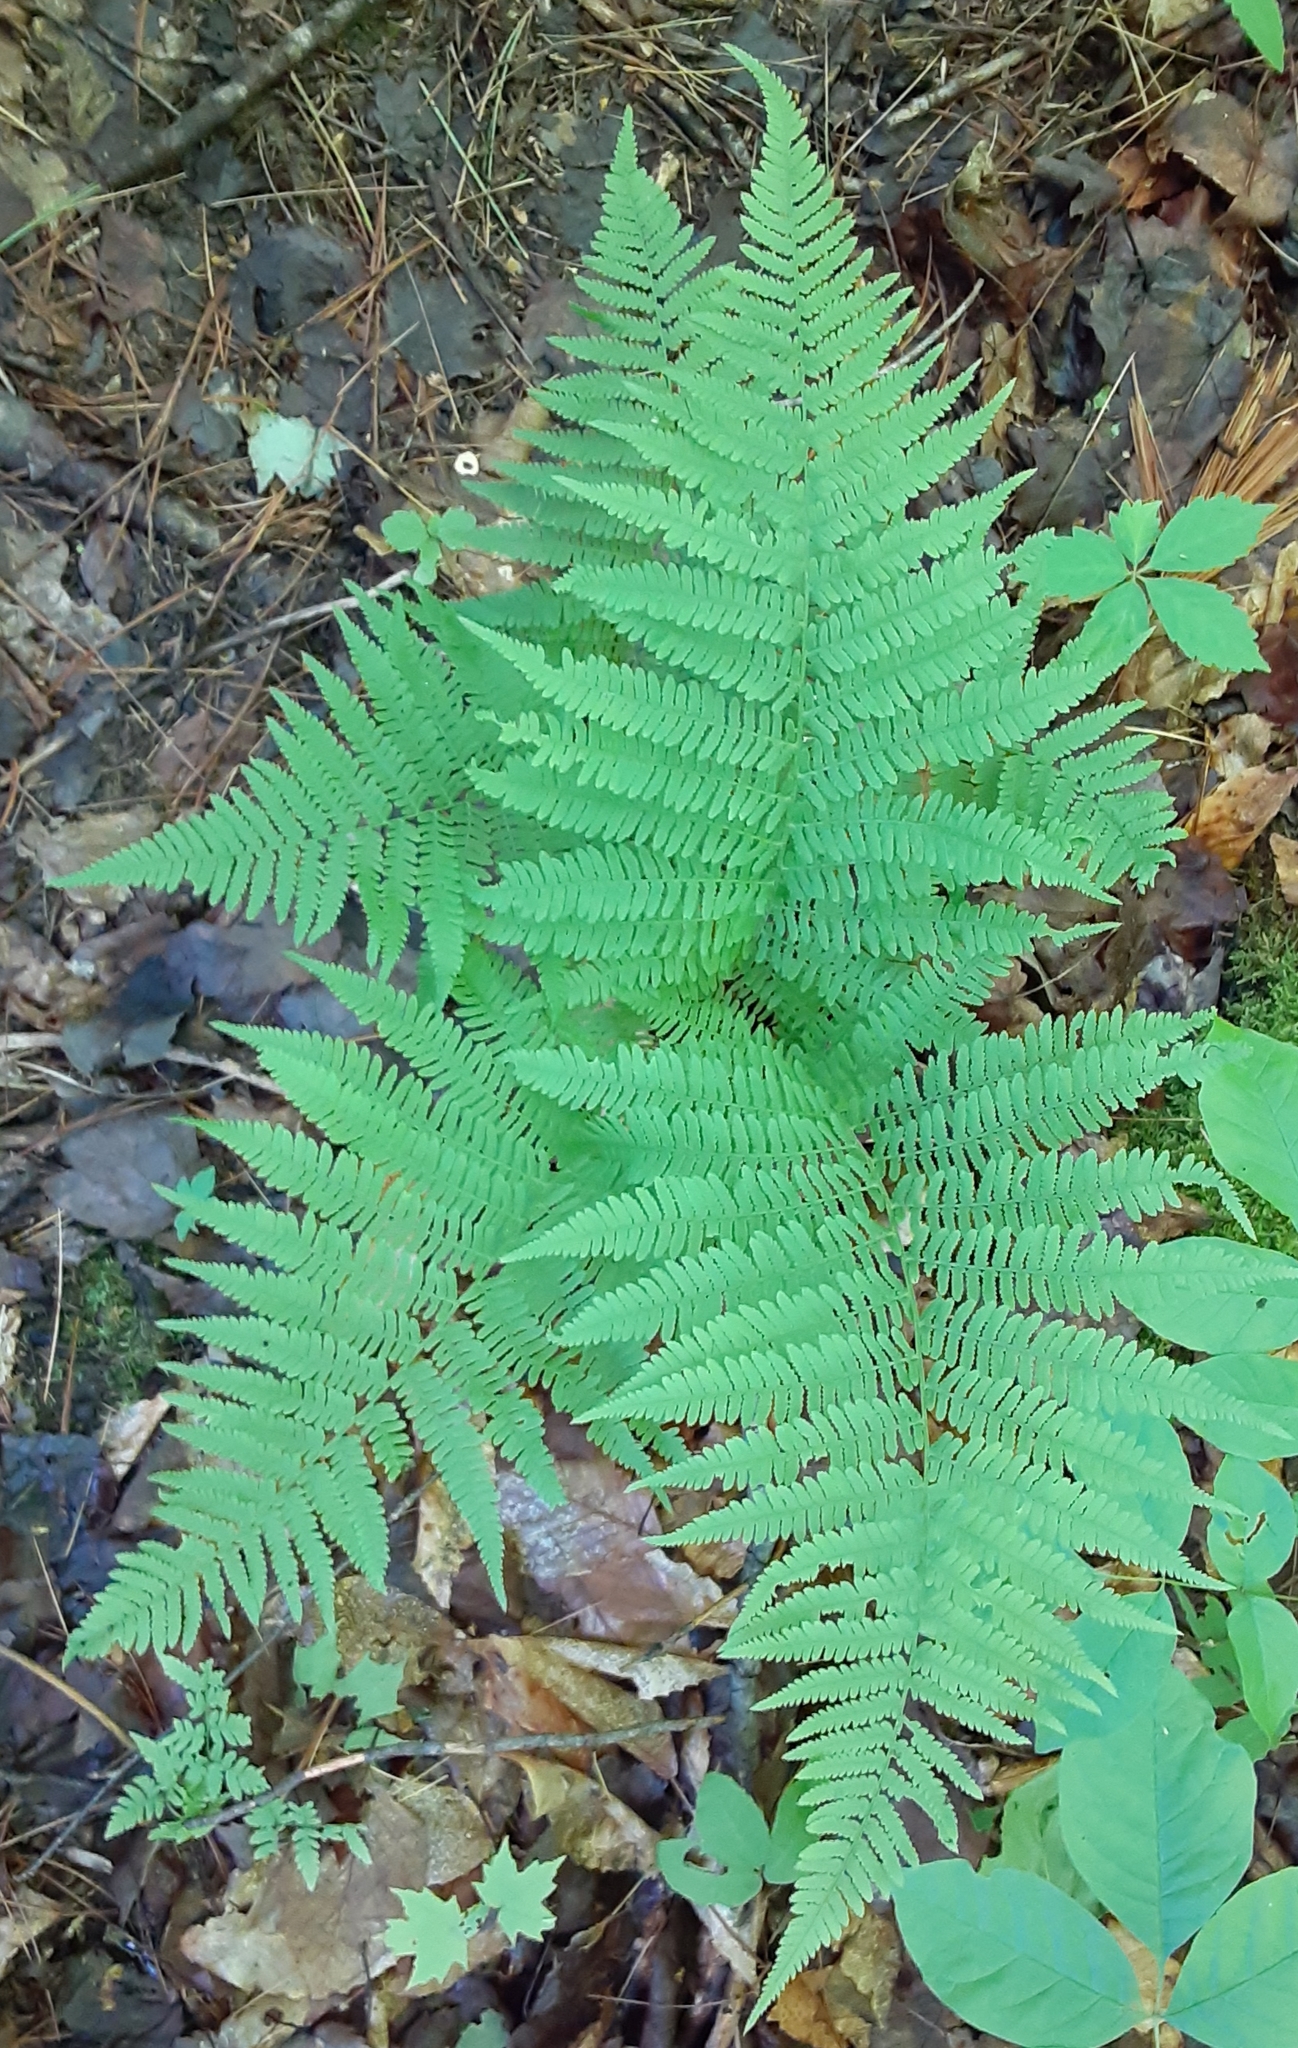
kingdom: Plantae
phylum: Tracheophyta
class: Polypodiopsida
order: Polypodiales
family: Athyriaceae
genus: Athyrium
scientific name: Athyrium angustum
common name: Northern lady fern
